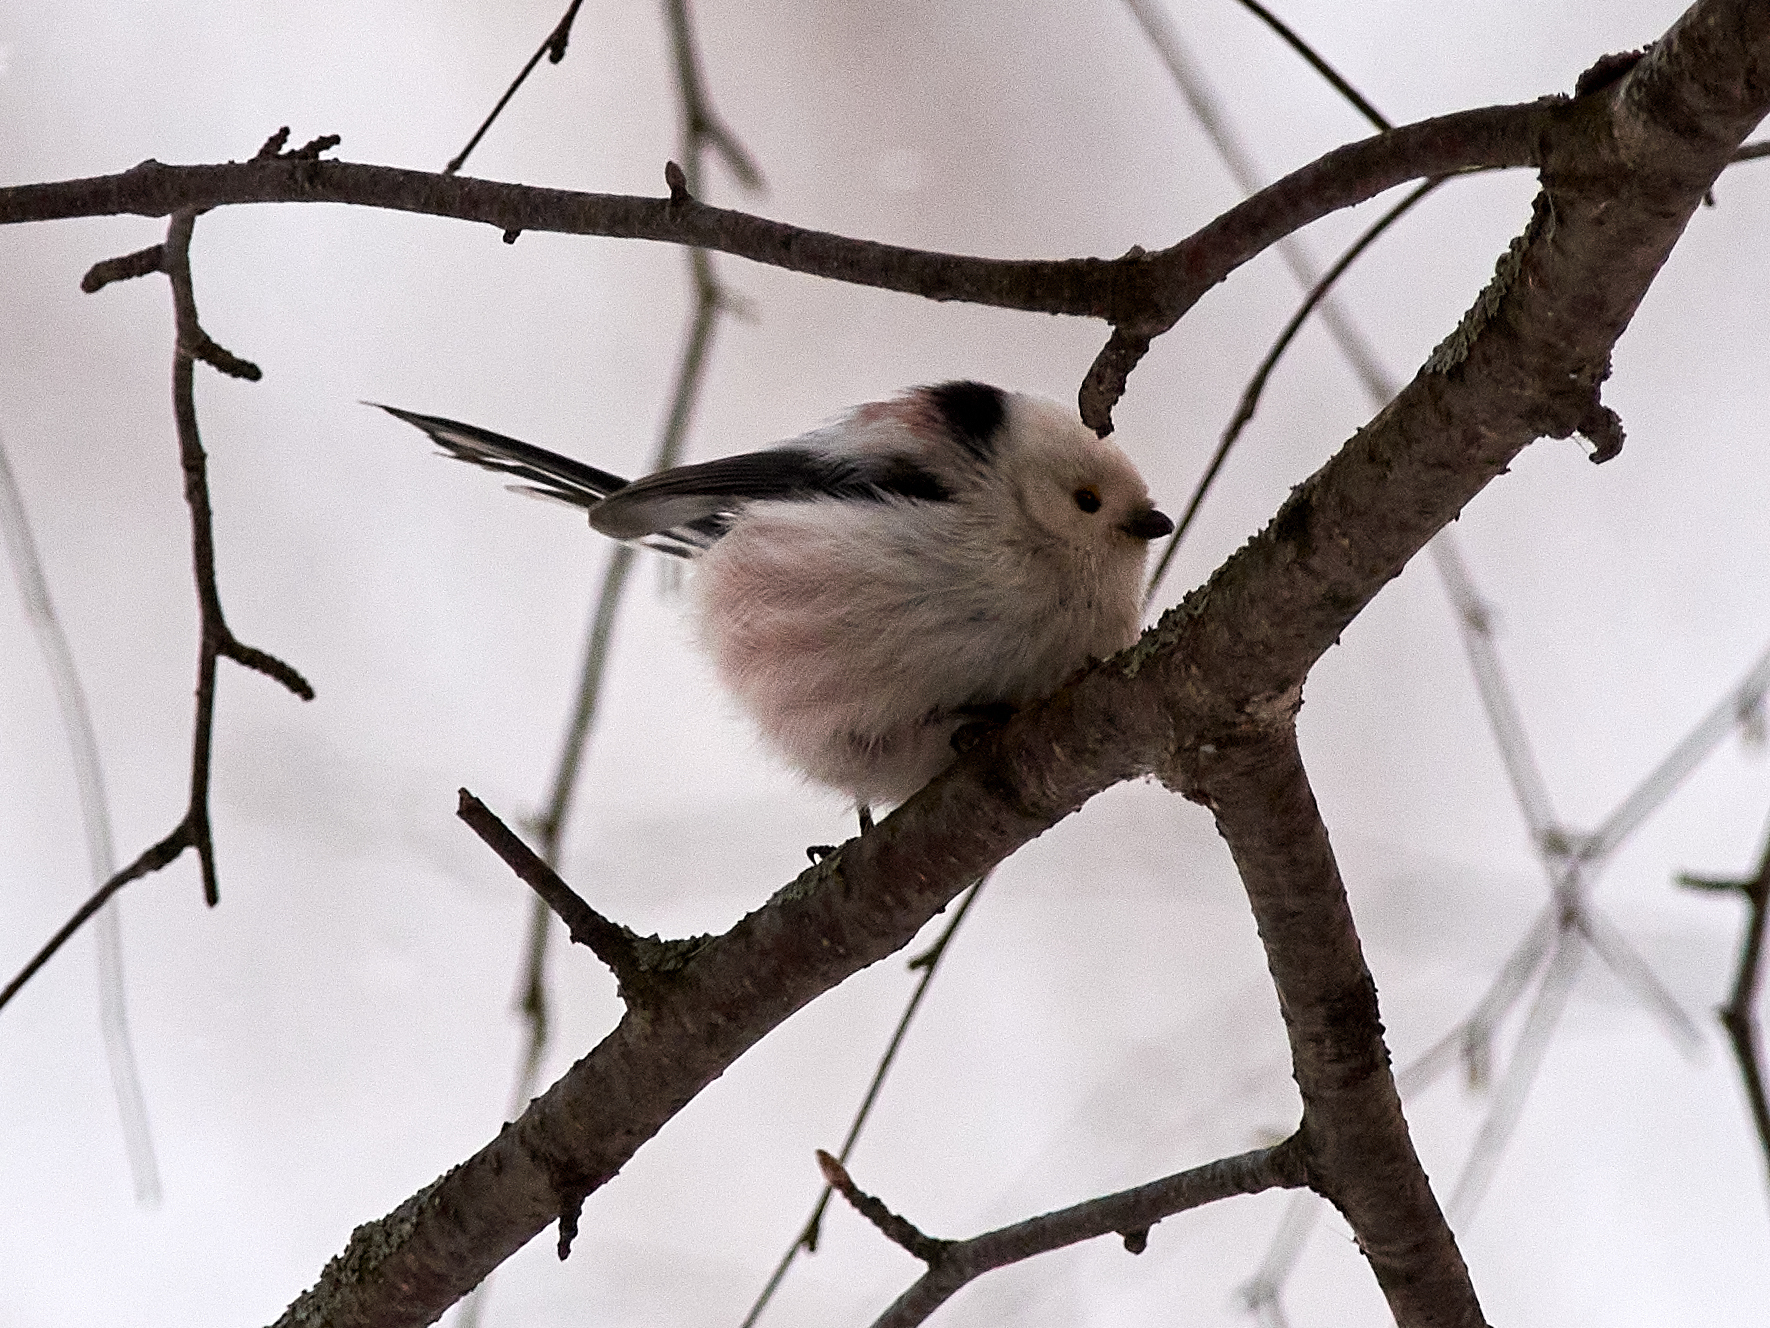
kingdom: Animalia
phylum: Chordata
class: Aves
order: Passeriformes
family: Aegithalidae
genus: Aegithalos
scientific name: Aegithalos caudatus
